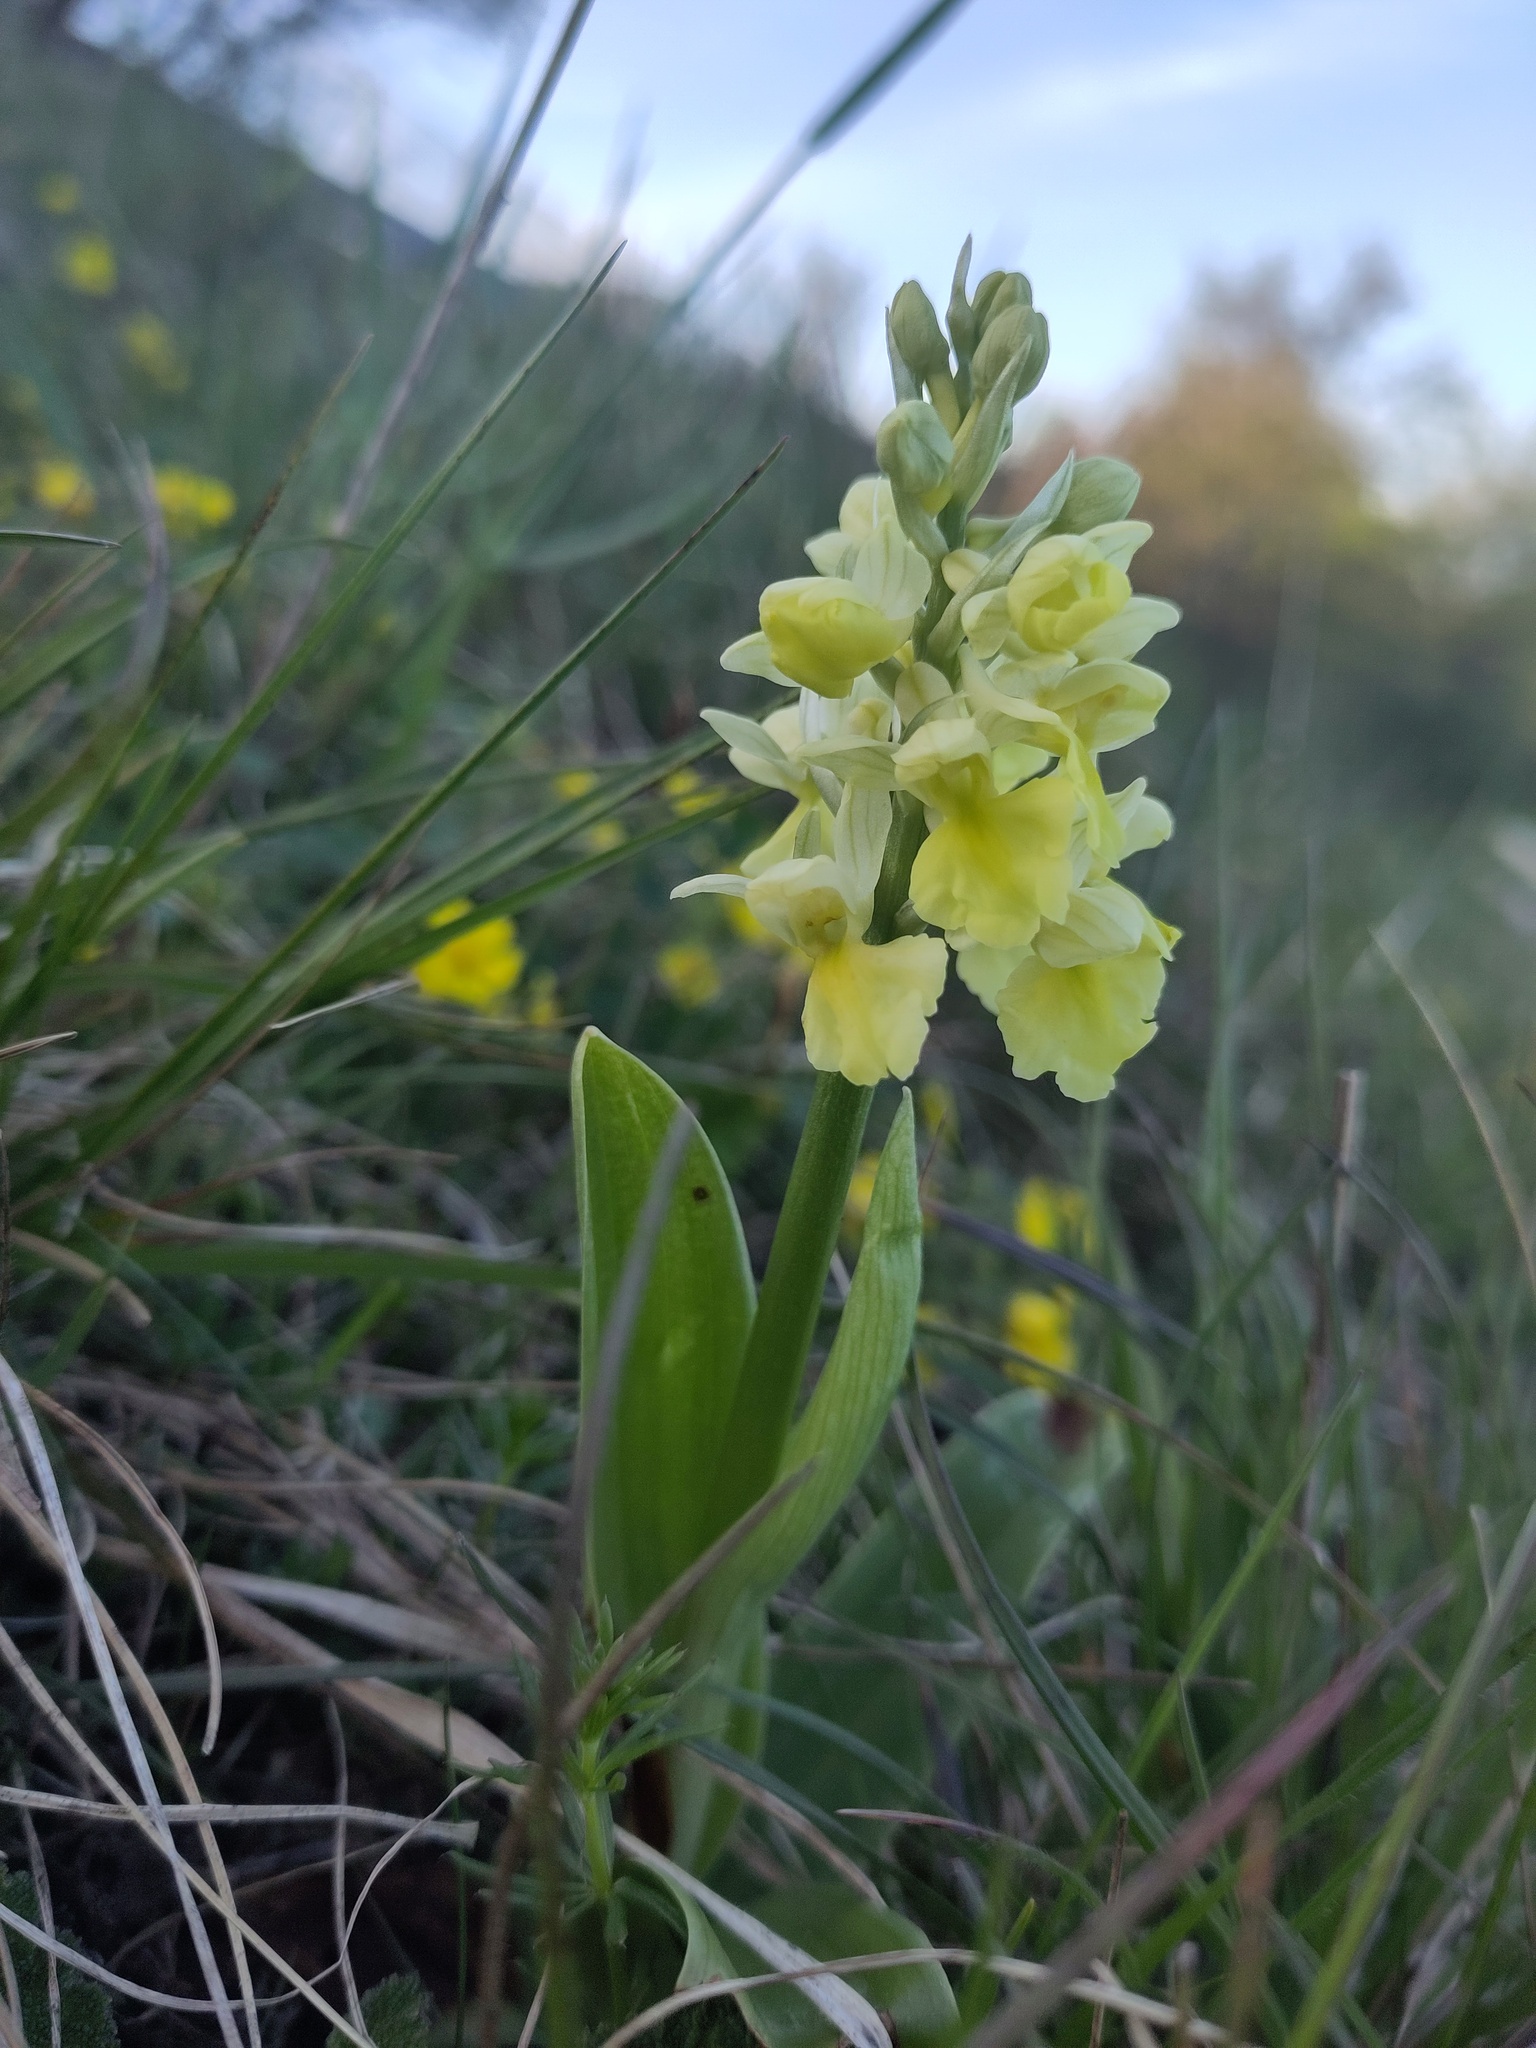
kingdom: Plantae
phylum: Tracheophyta
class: Liliopsida
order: Asparagales
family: Orchidaceae
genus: Orchis
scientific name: Orchis pallens
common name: Pale-flowered orchid
